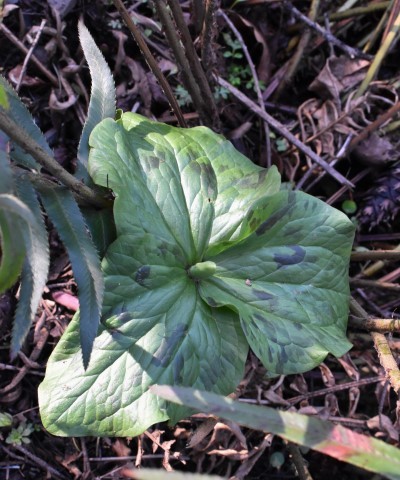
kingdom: Plantae
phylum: Tracheophyta
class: Liliopsida
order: Liliales
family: Melanthiaceae
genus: Trillium
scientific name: Trillium albidum
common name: Freeman's trillium
